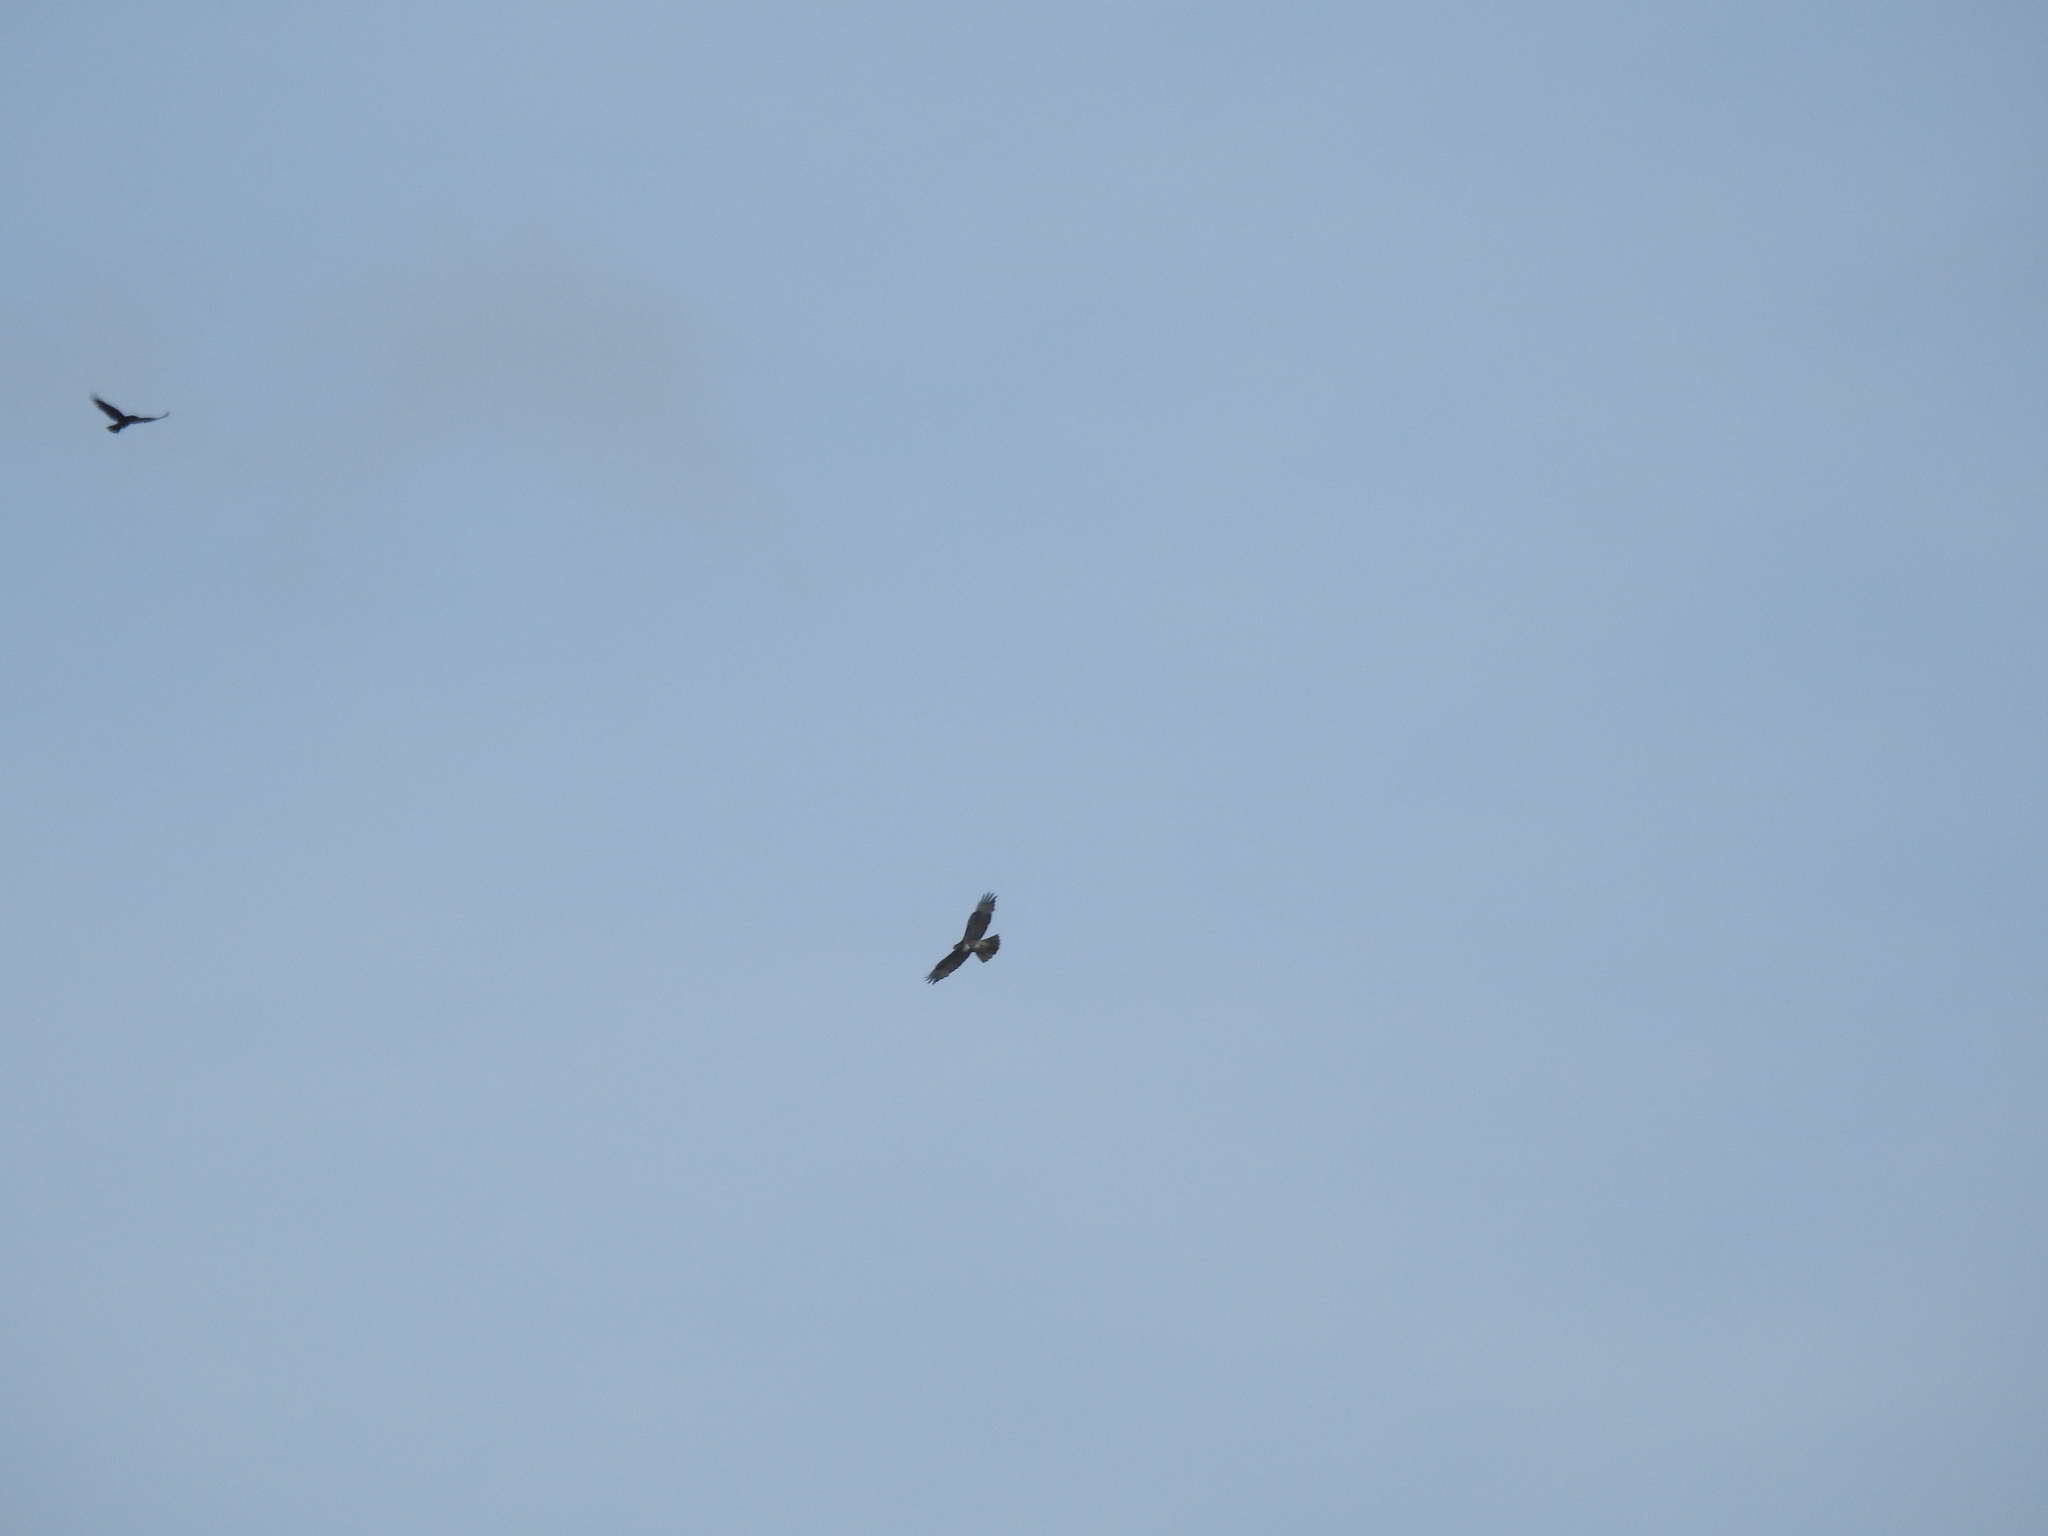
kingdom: Animalia
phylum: Chordata
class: Aves
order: Accipitriformes
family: Accipitridae
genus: Buteo
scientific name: Buteo jamaicensis
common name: Red-tailed hawk
